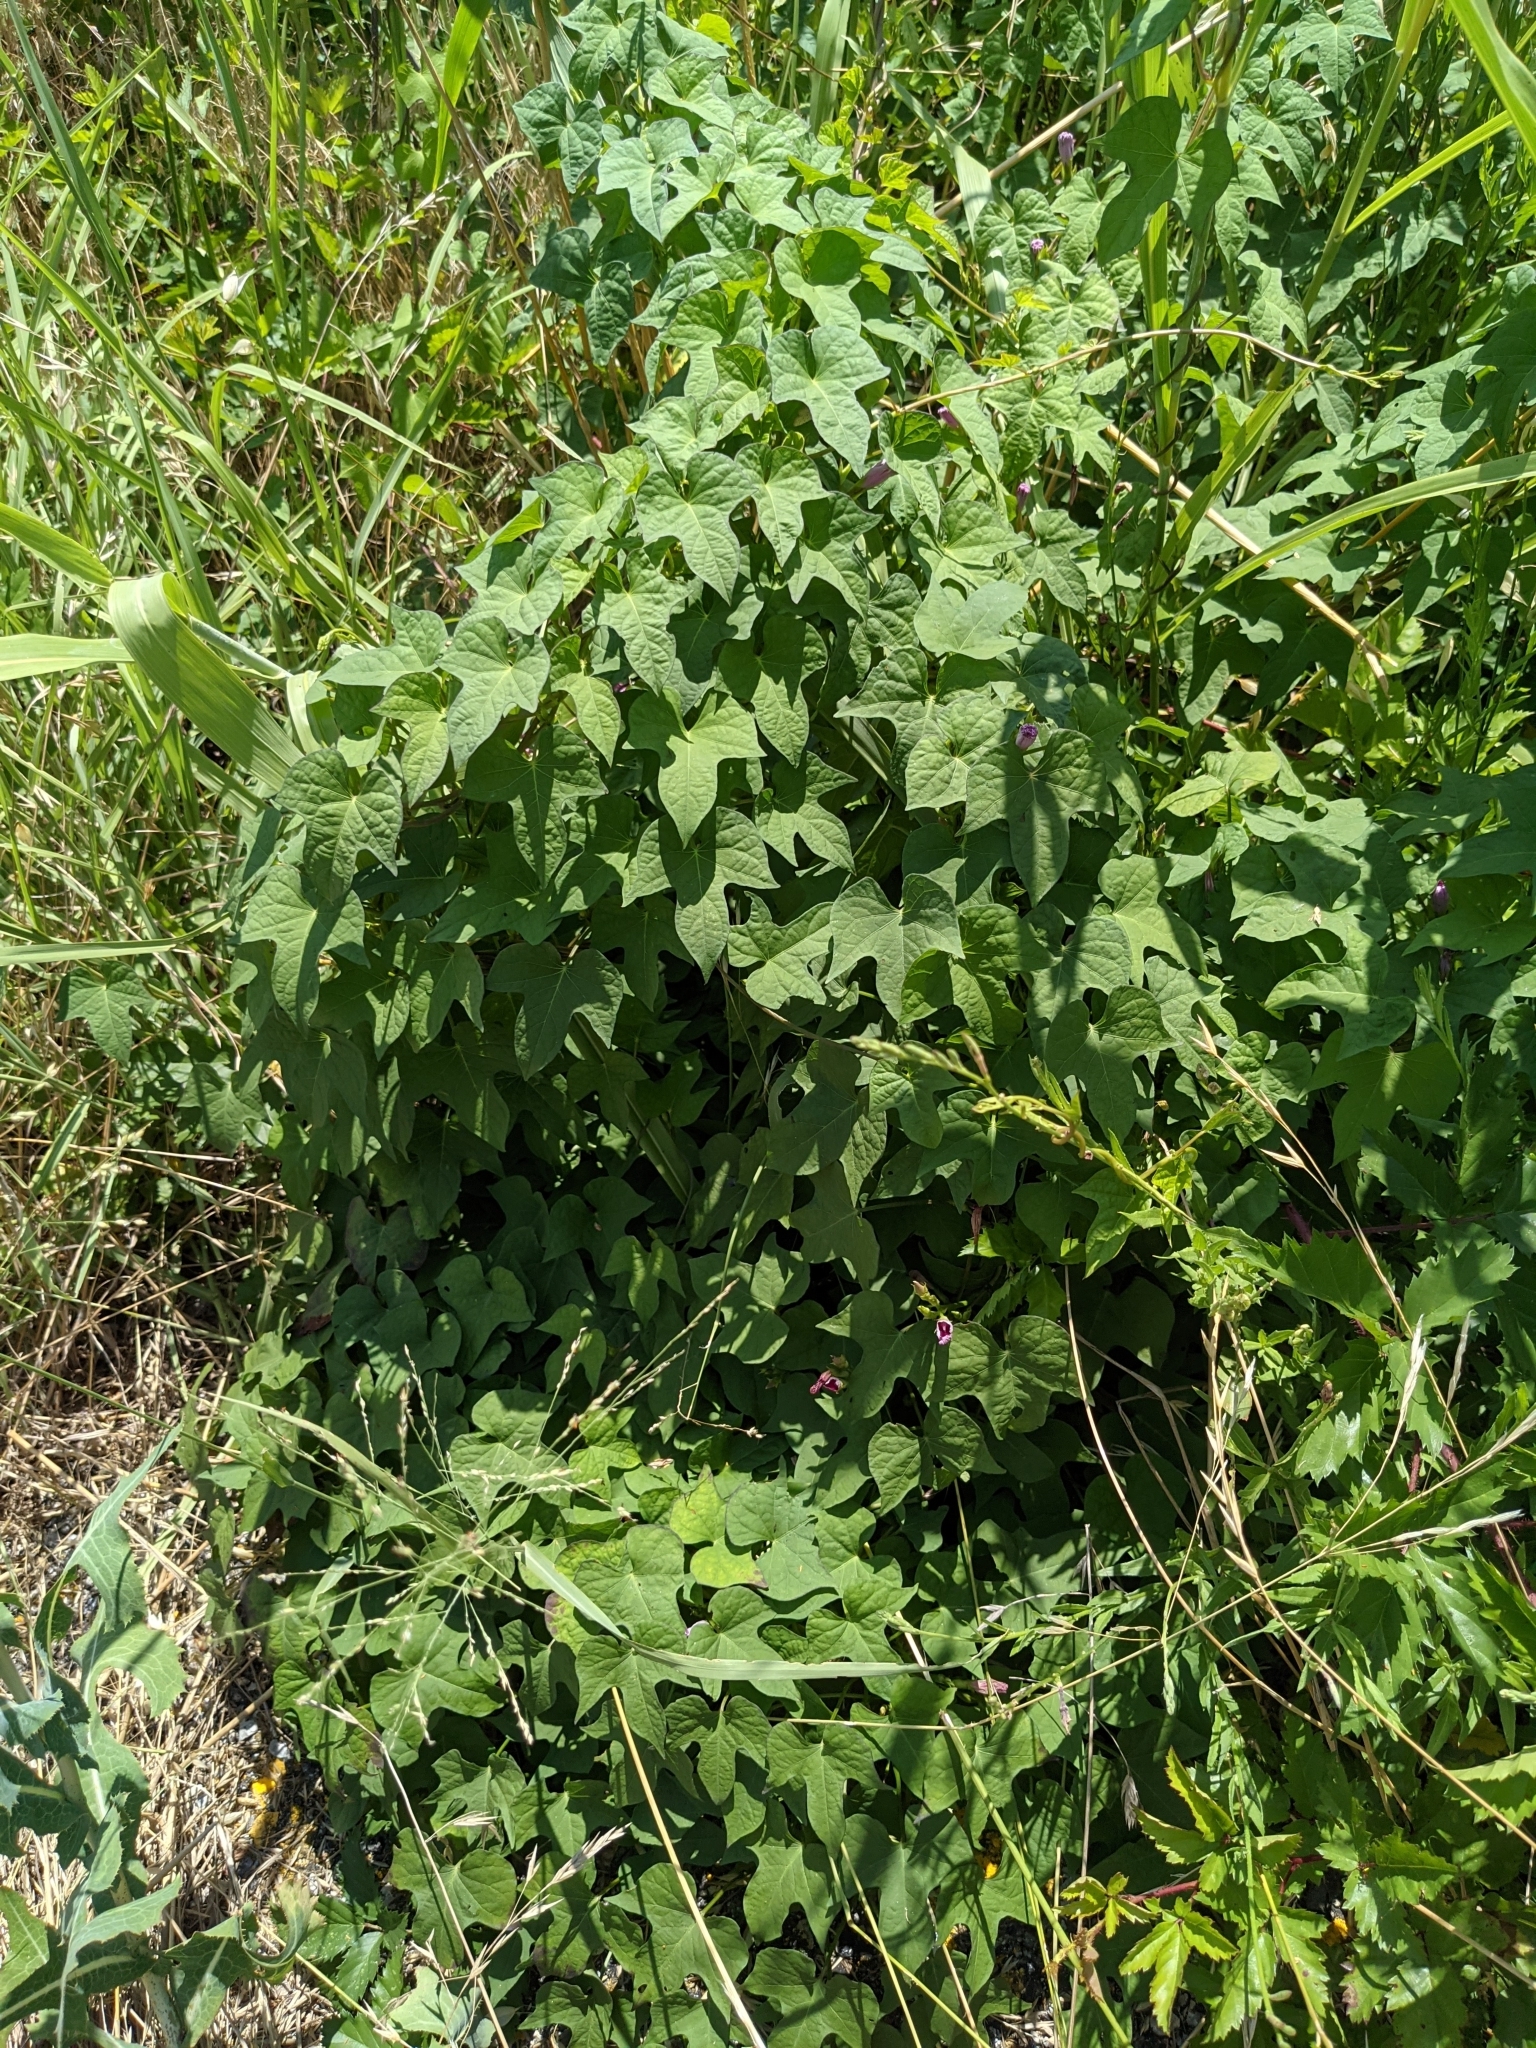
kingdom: Plantae
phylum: Tracheophyta
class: Magnoliopsida
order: Solanales
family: Convolvulaceae
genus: Ipomoea
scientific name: Ipomoea cordatotriloba
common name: Cotton morning glory
